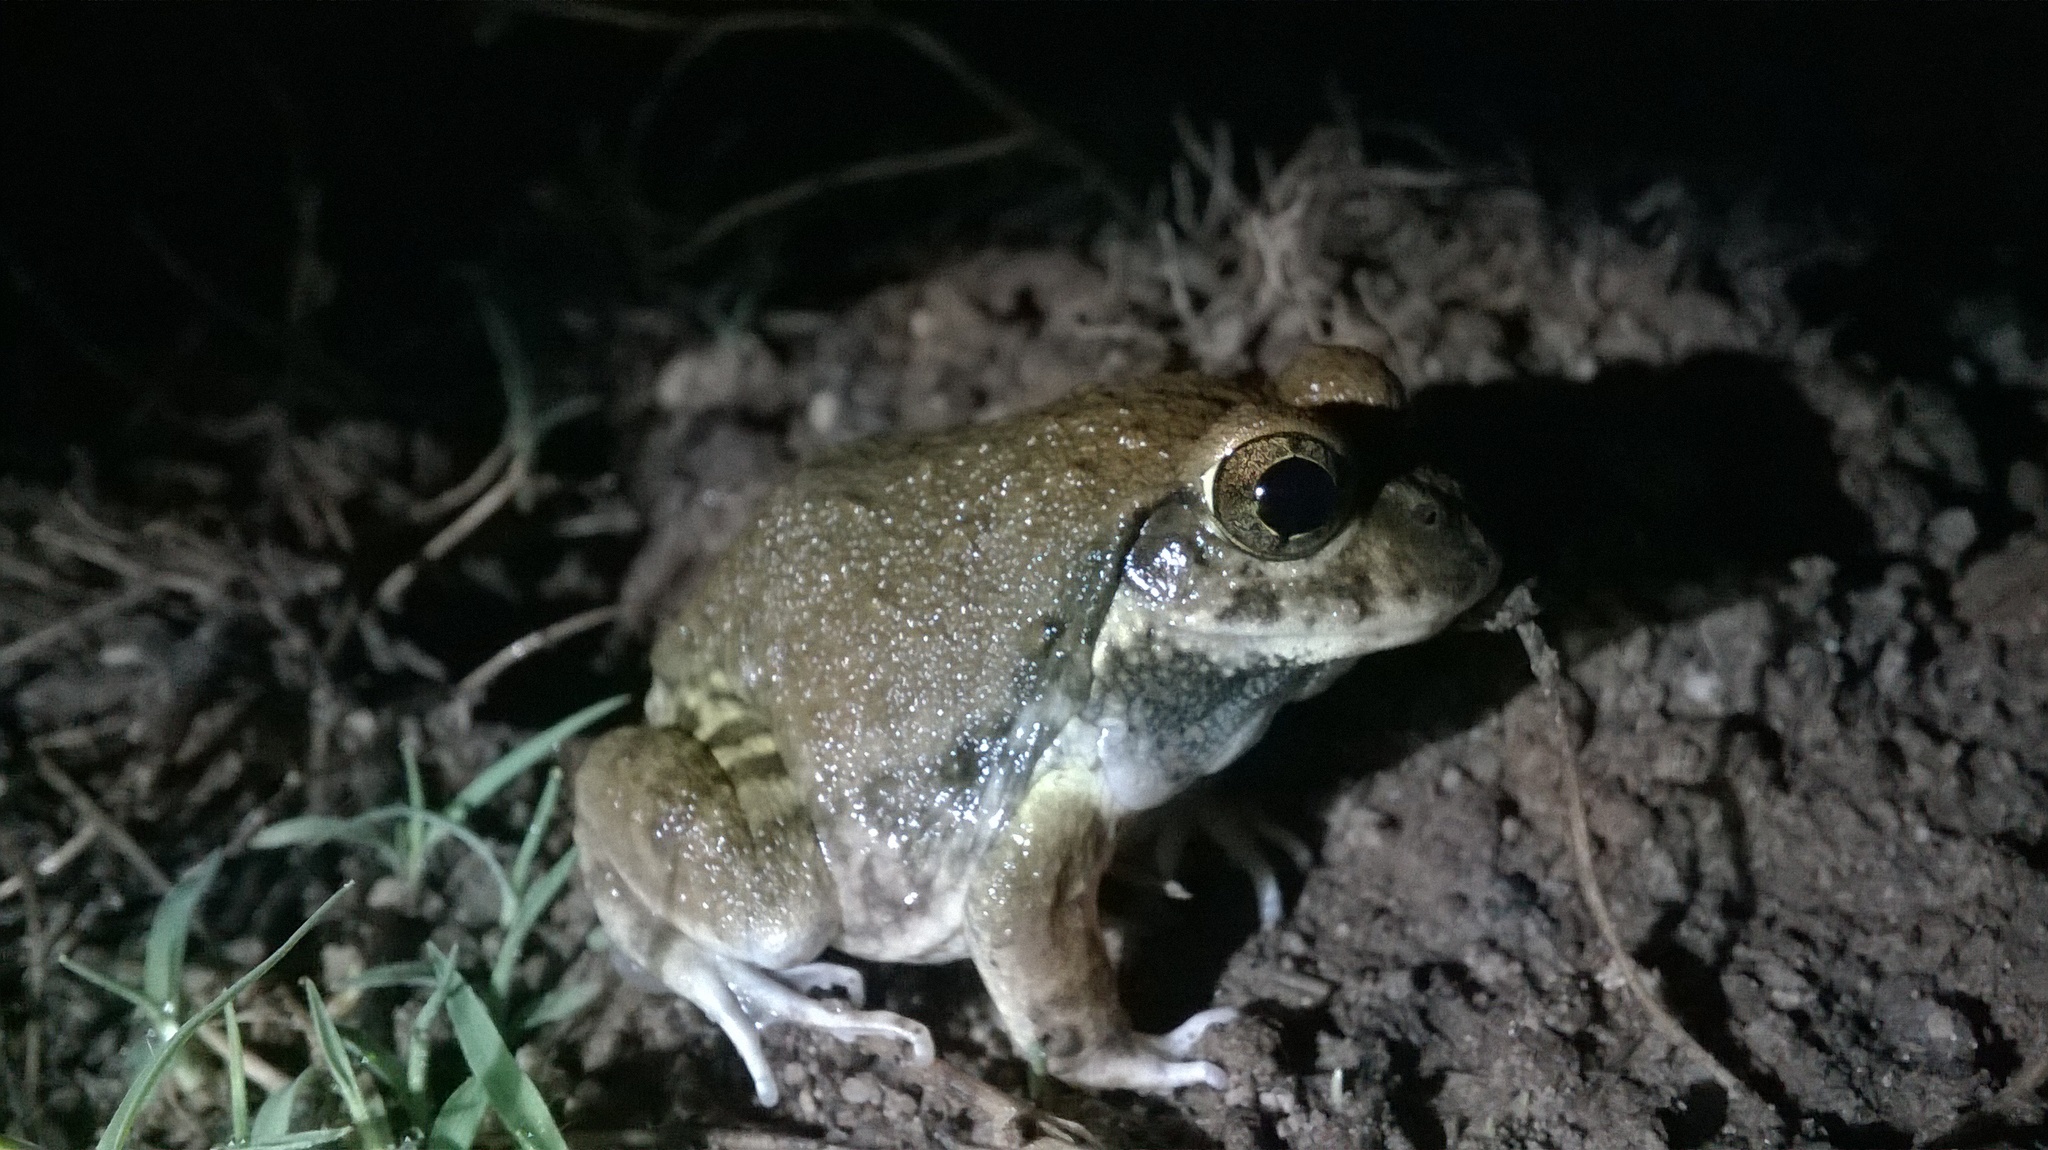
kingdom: Animalia
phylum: Chordata
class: Amphibia
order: Anura
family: Dicroglossidae
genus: Sphaerotheca
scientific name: Sphaerotheca maskeyi
